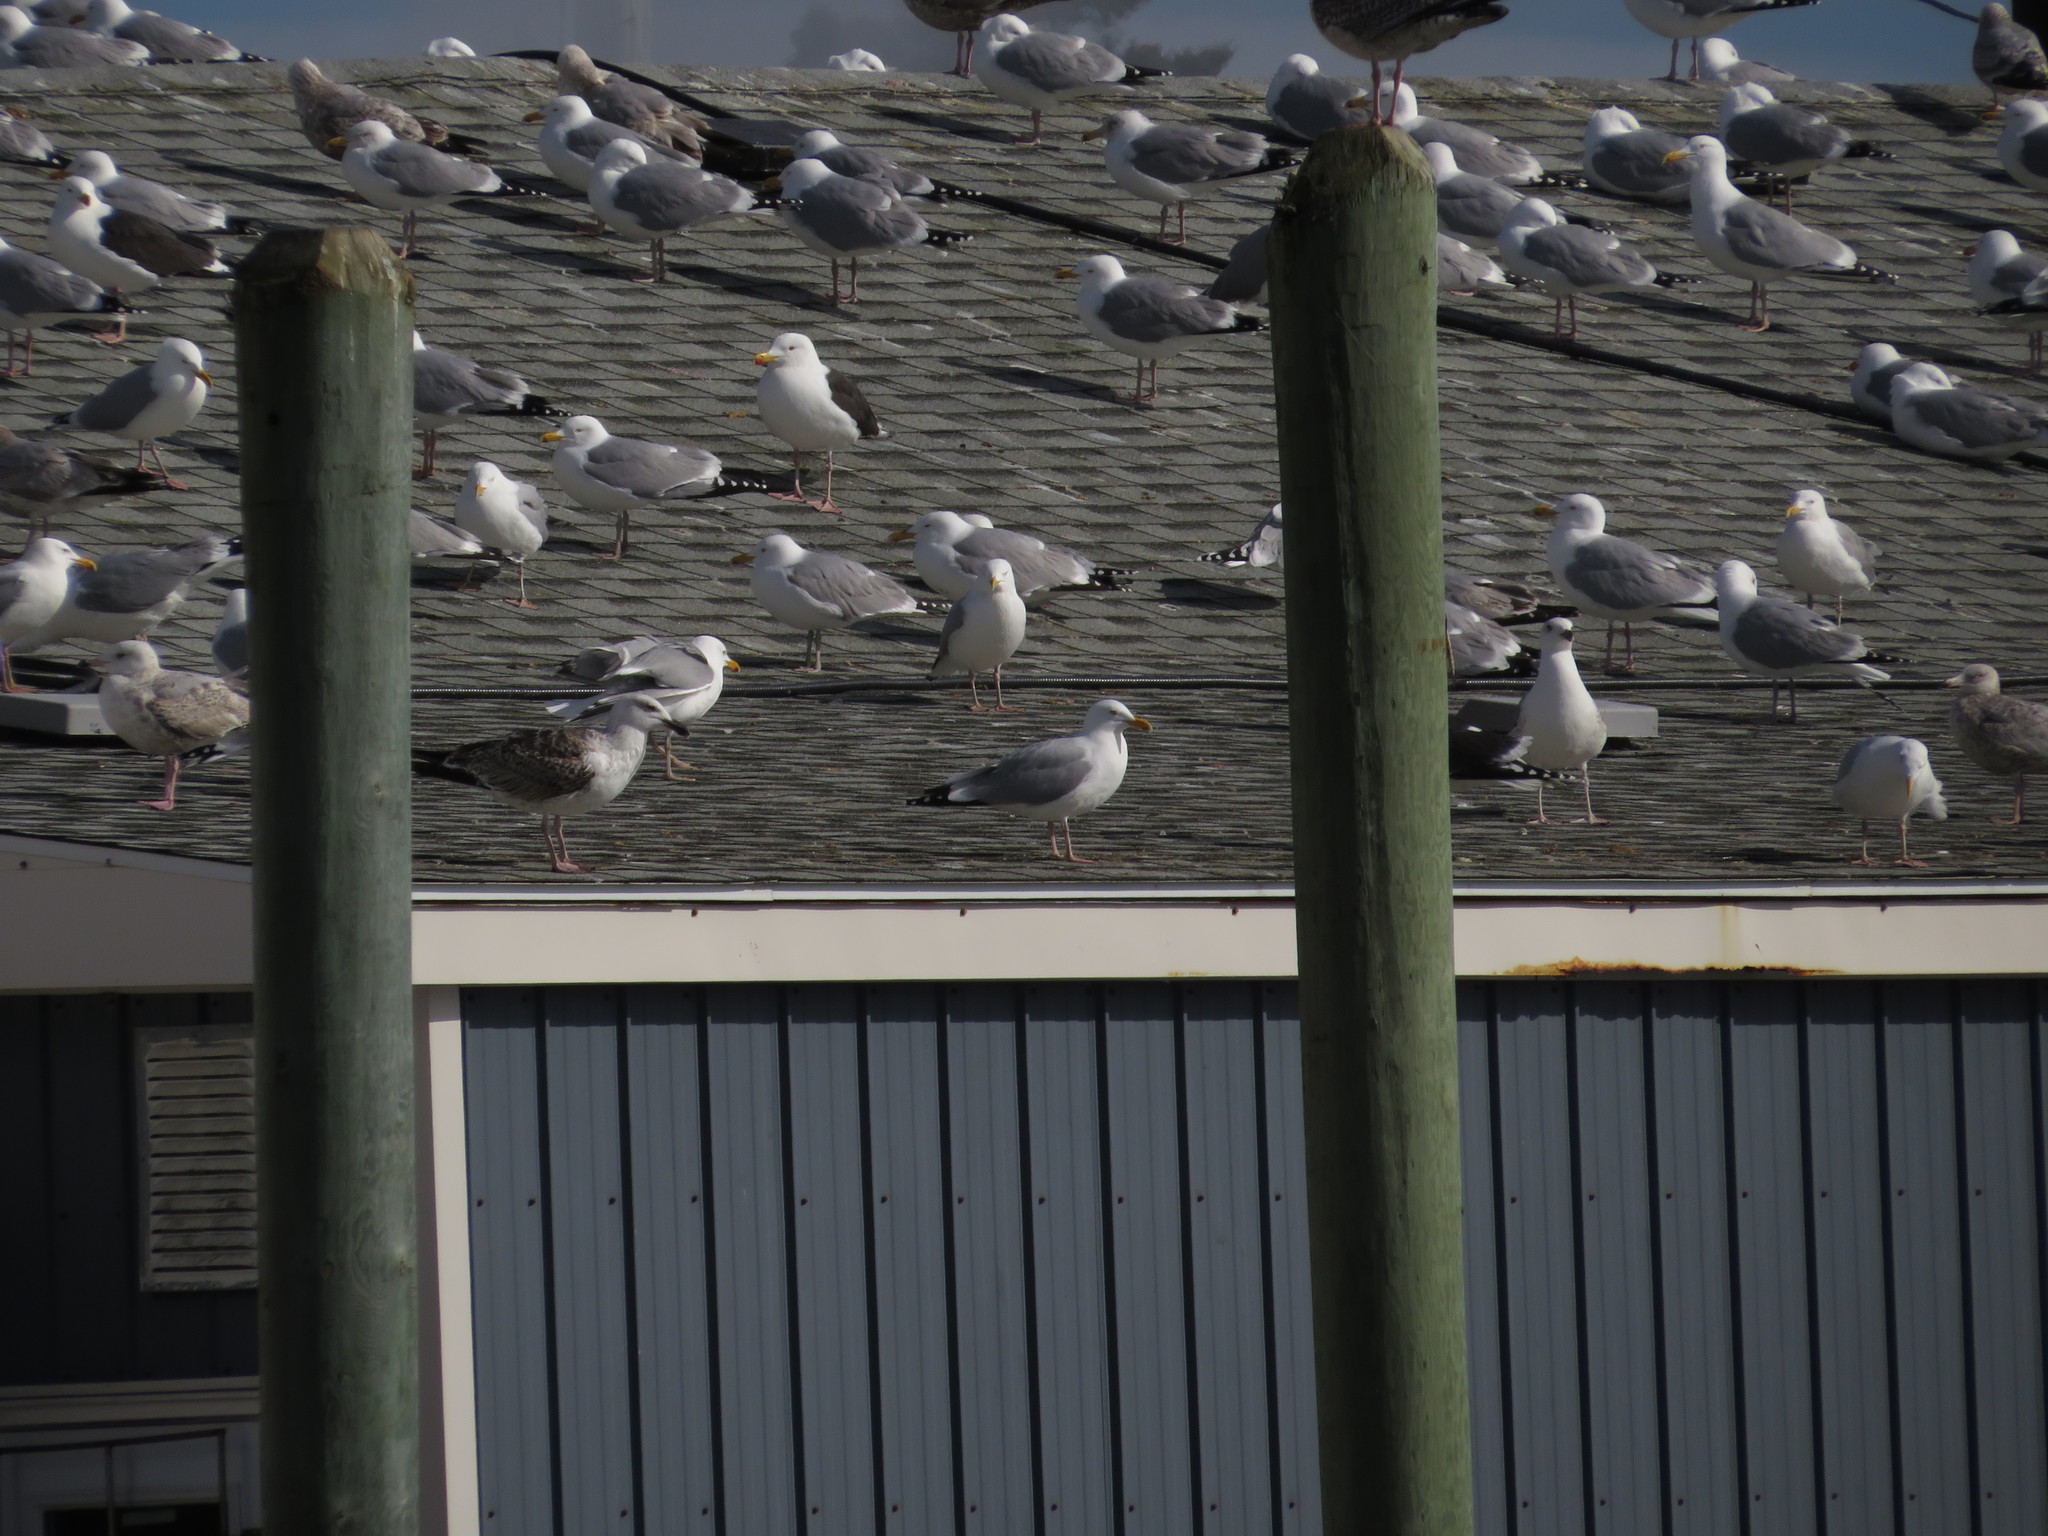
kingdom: Animalia
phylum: Chordata
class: Aves
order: Charadriiformes
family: Laridae
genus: Larus
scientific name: Larus argentatus
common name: Herring gull
